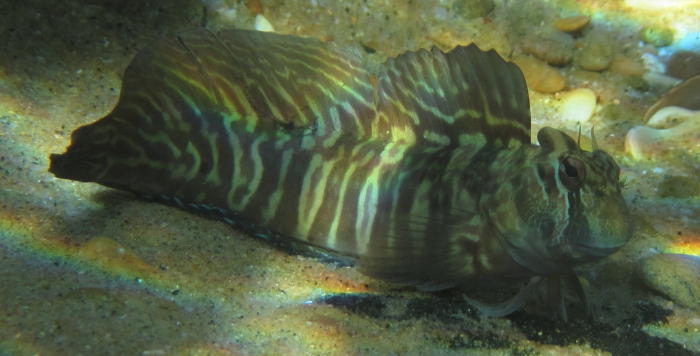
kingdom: Animalia
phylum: Chordata
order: Perciformes
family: Blenniidae
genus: Istiblennius
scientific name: Istiblennius edentulus
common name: Rippled rockskipper
